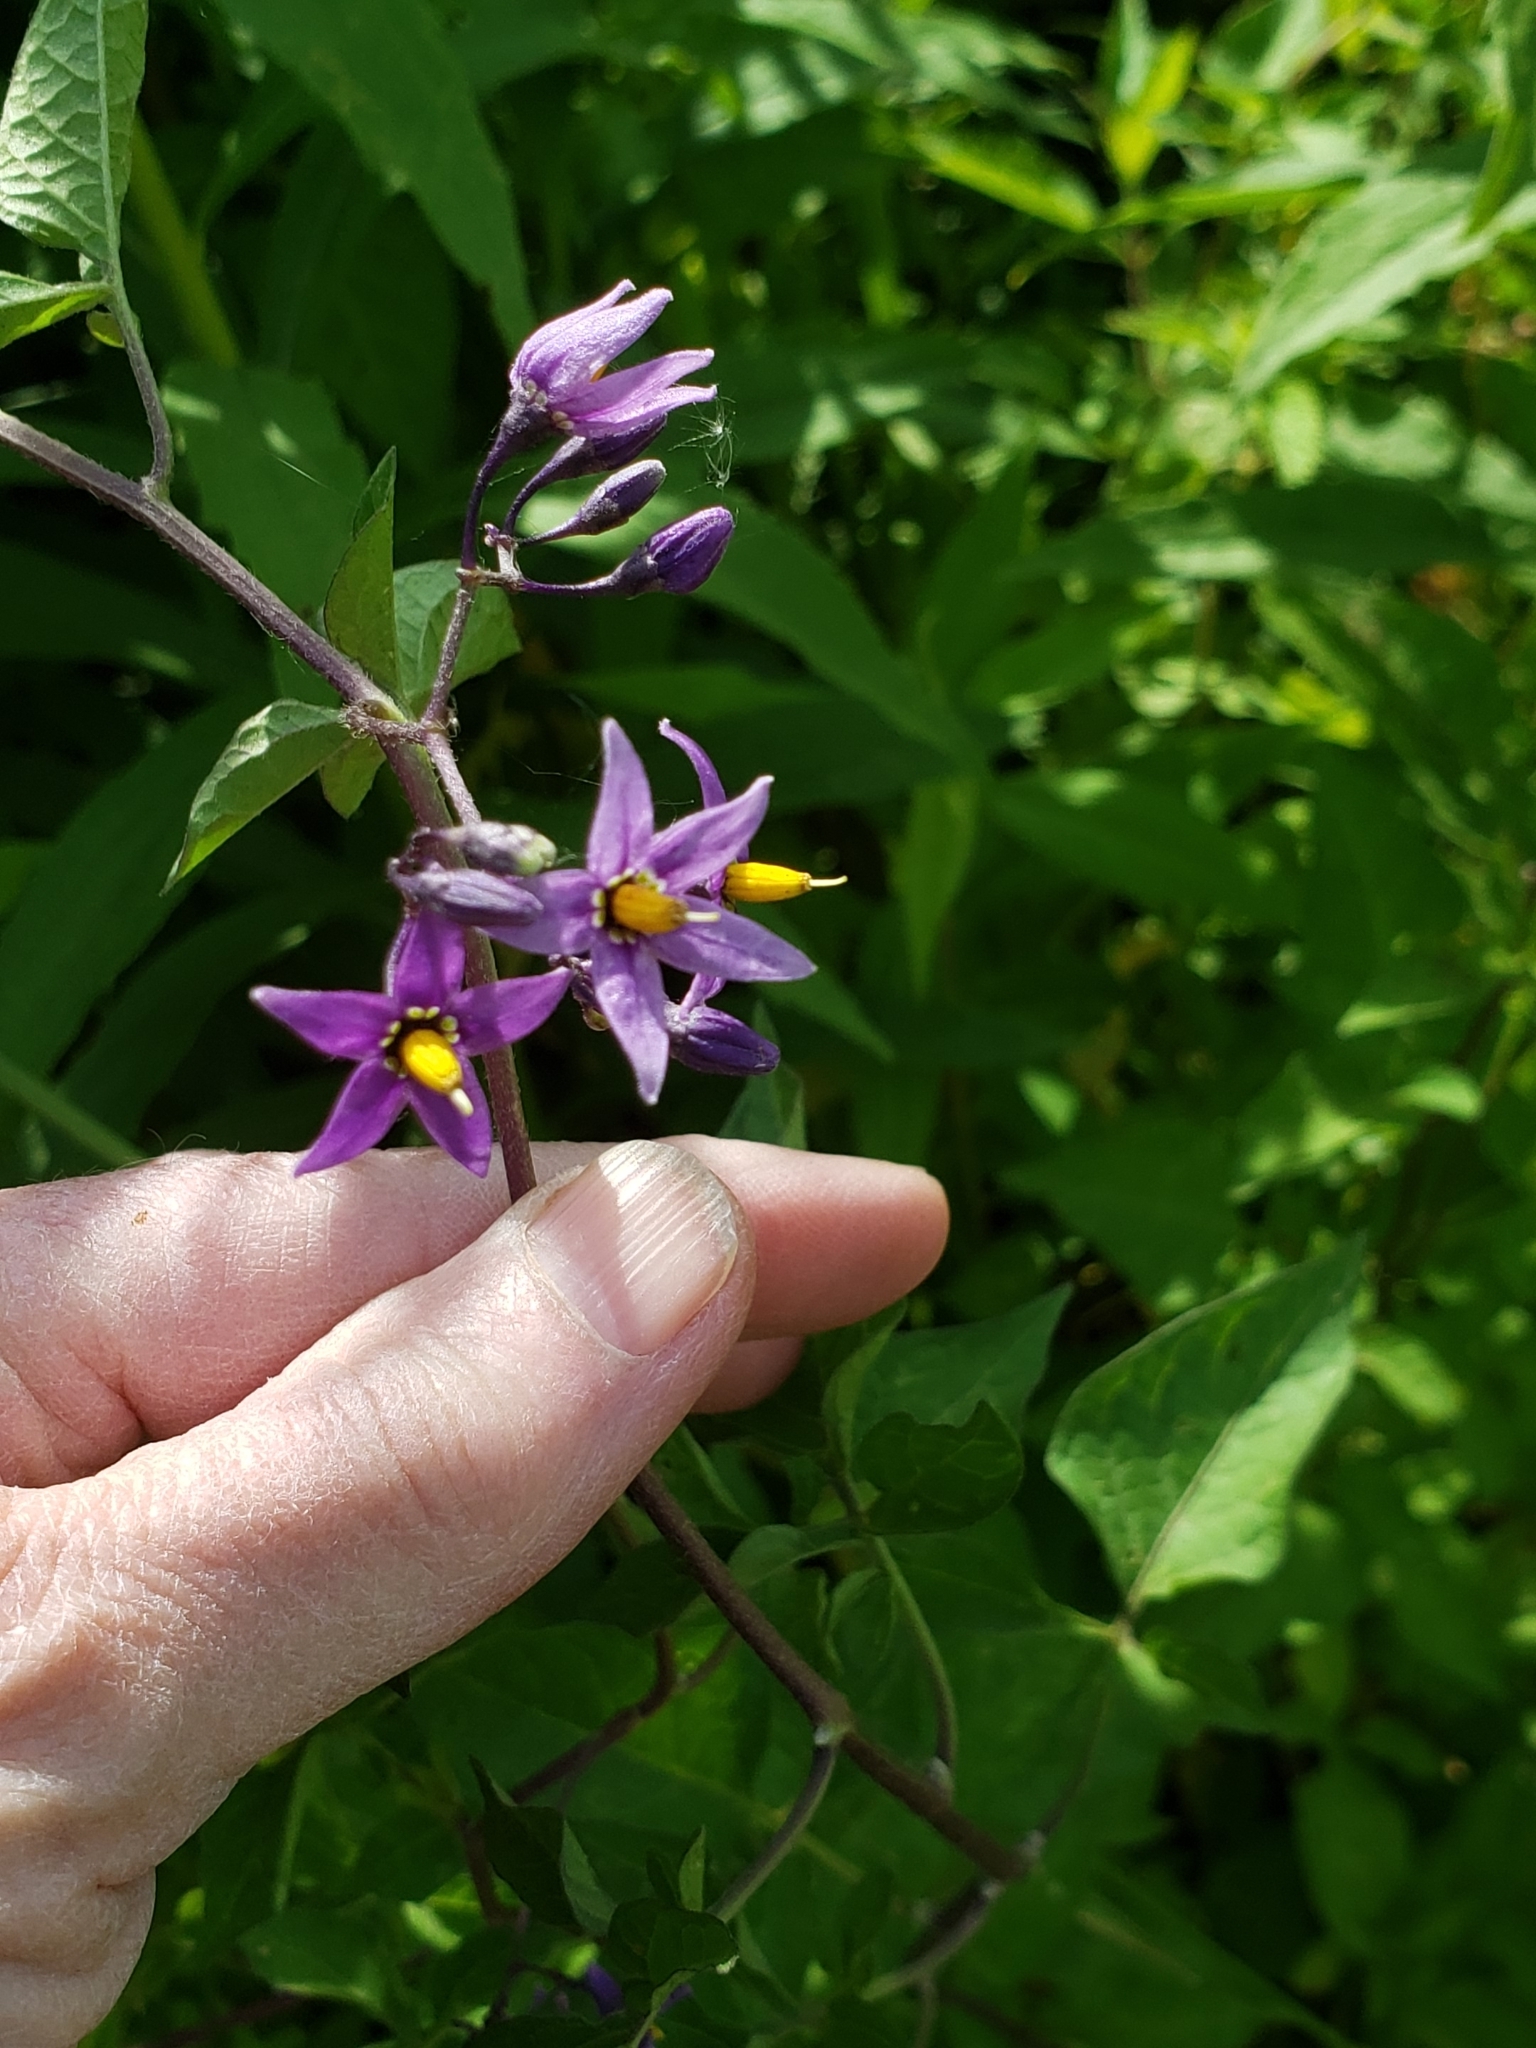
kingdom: Plantae
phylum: Tracheophyta
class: Magnoliopsida
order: Solanales
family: Solanaceae
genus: Solanum
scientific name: Solanum dulcamara
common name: Climbing nightshade
